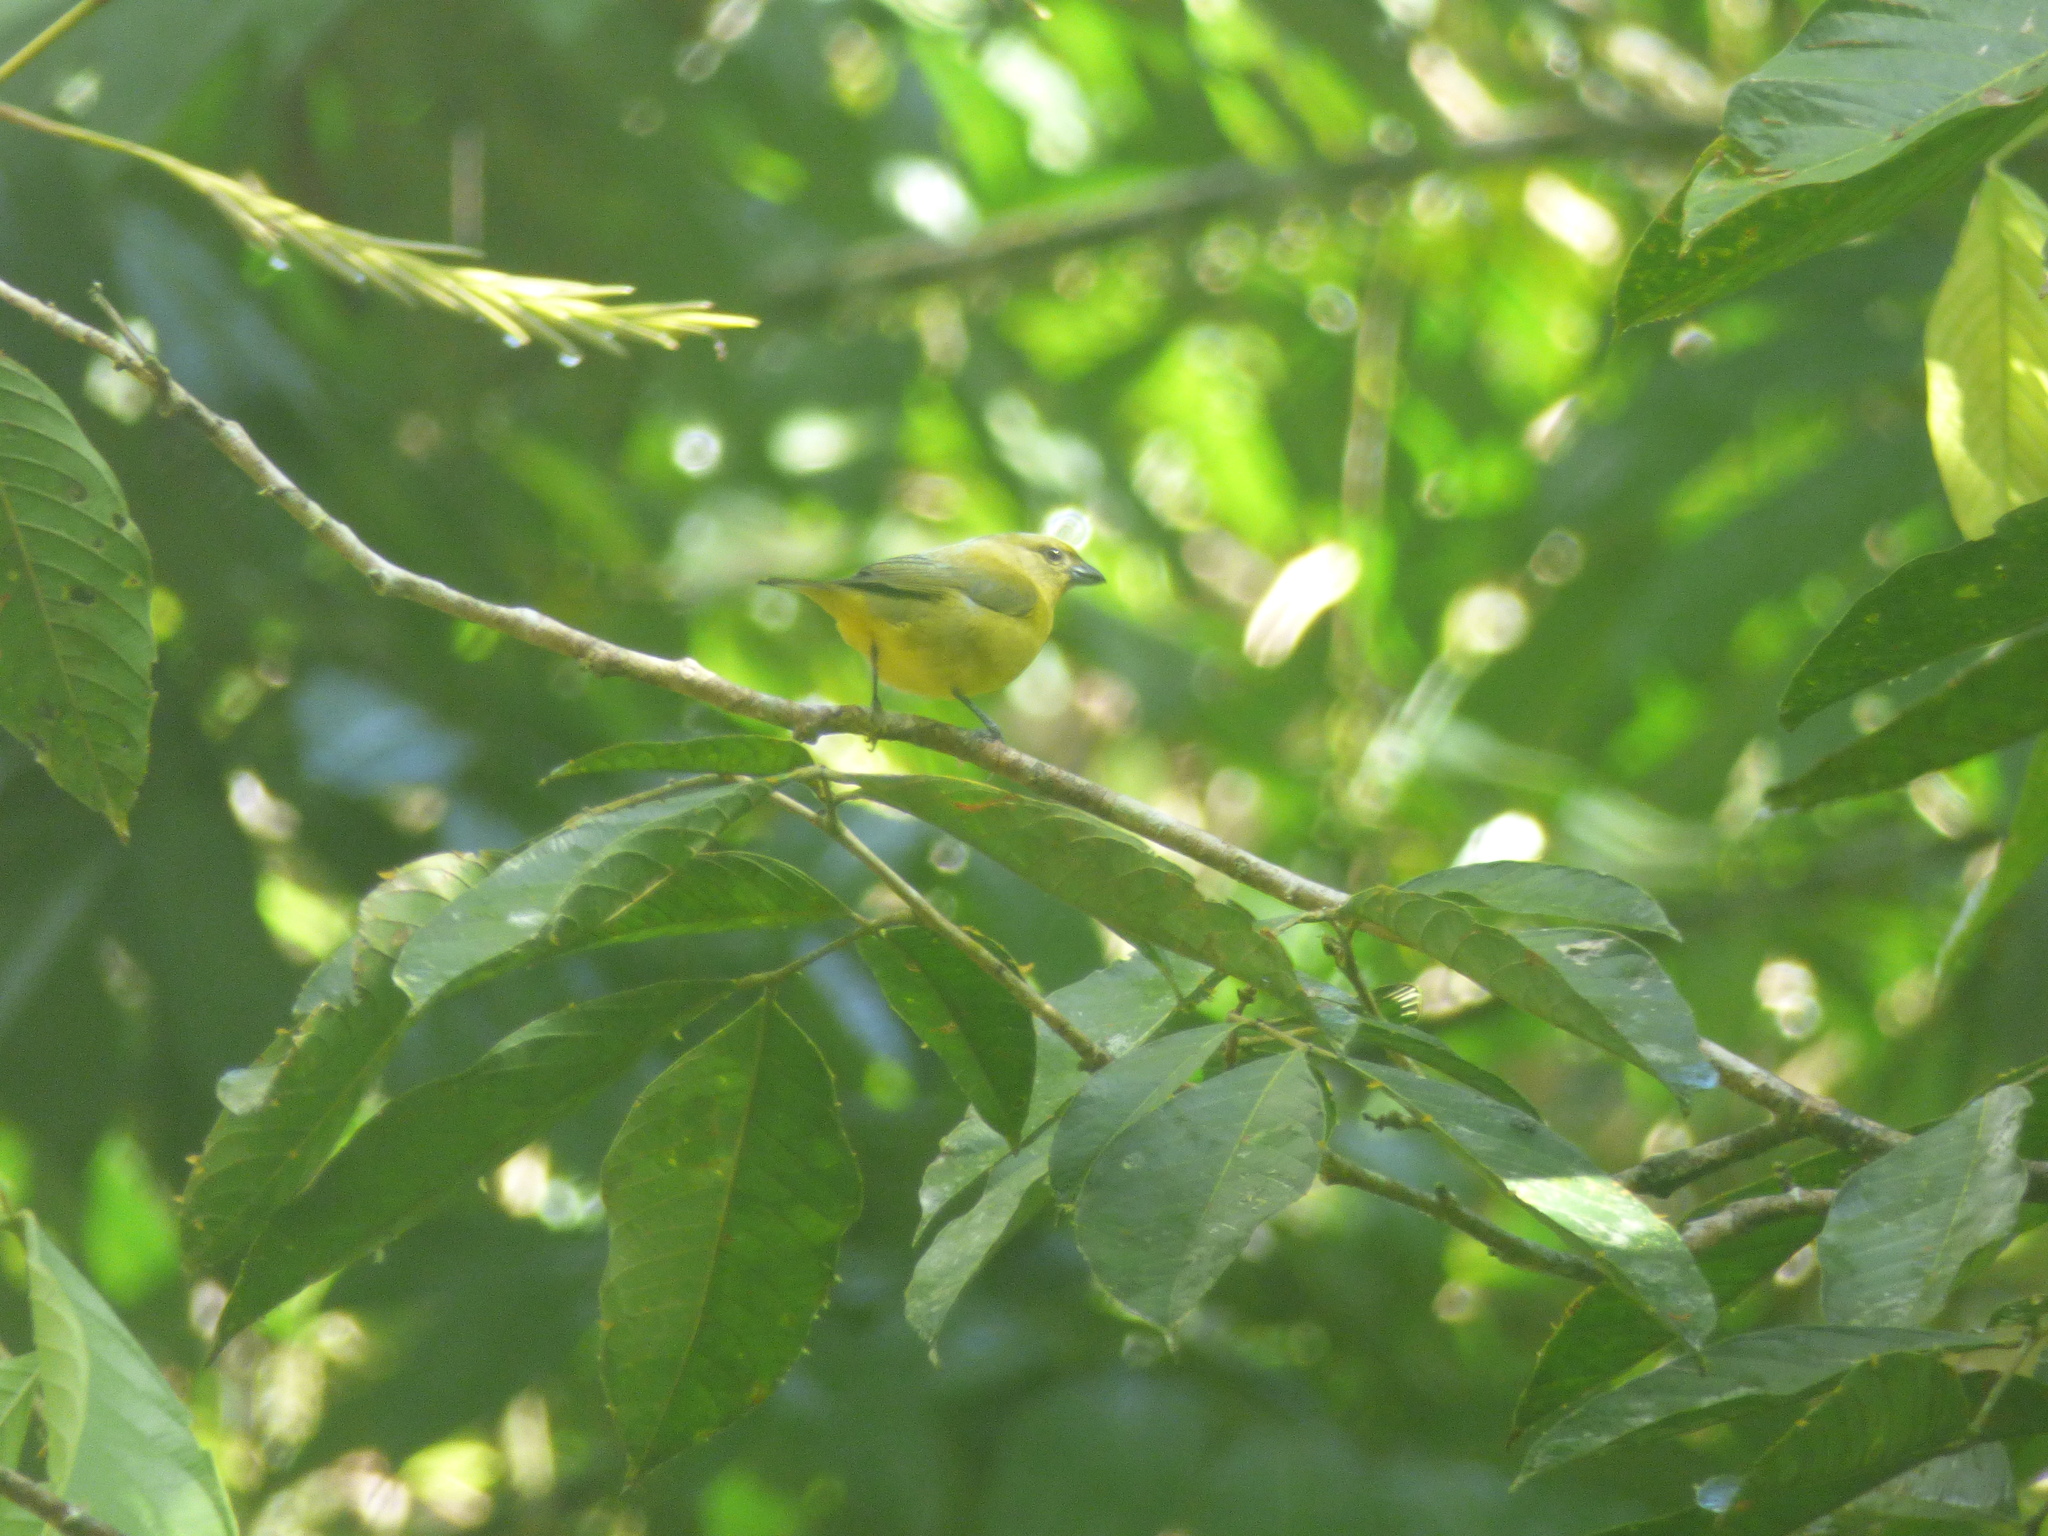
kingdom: Animalia
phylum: Chordata
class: Aves
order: Passeriformes
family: Fringillidae
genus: Euphonia
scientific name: Euphonia laniirostris
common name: Thick-billed euphonia
